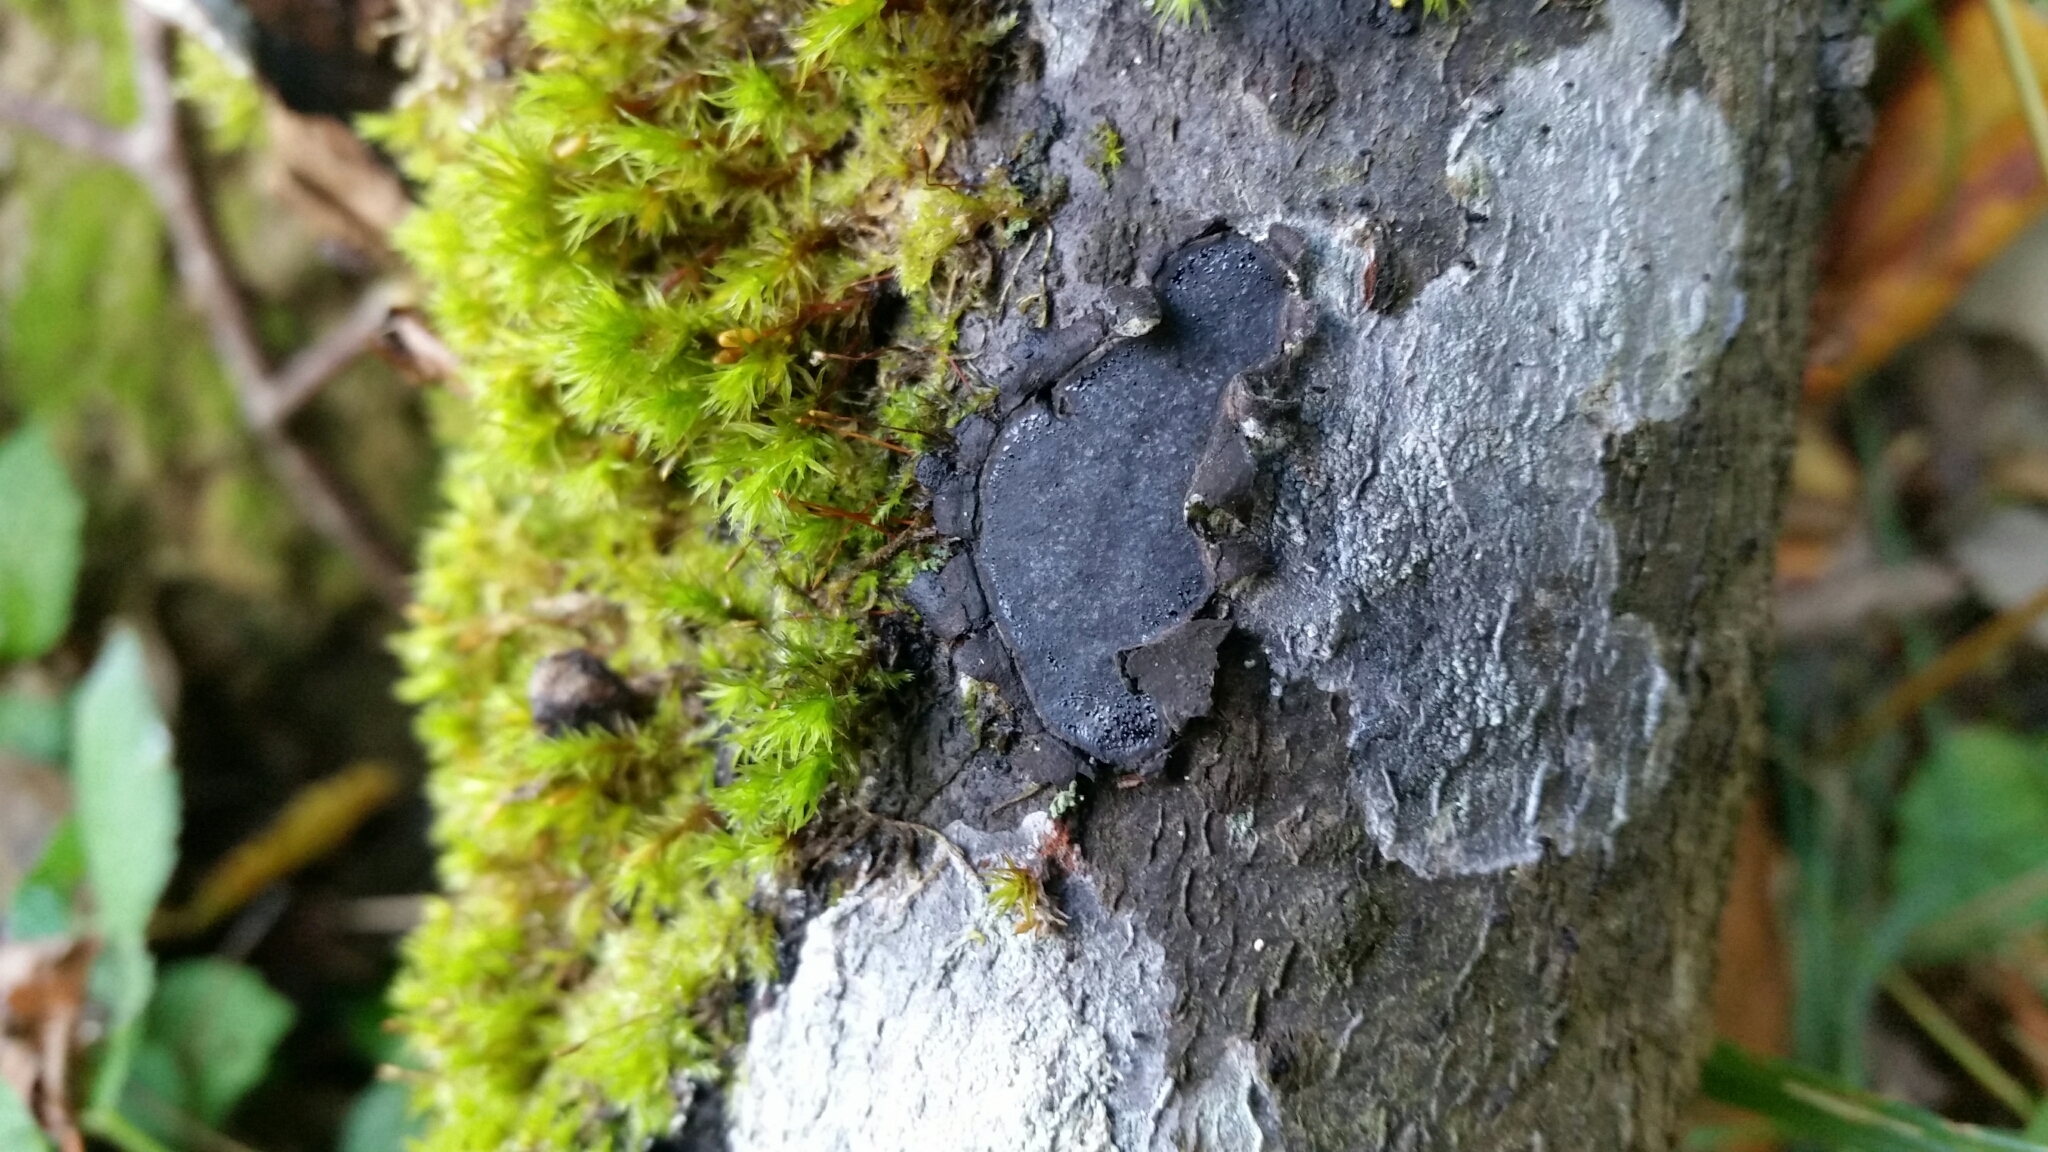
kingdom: Fungi
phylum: Ascomycota
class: Sordariomycetes
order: Xylariales
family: Graphostromataceae
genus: Biscogniauxia
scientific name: Biscogniauxia granmoi
